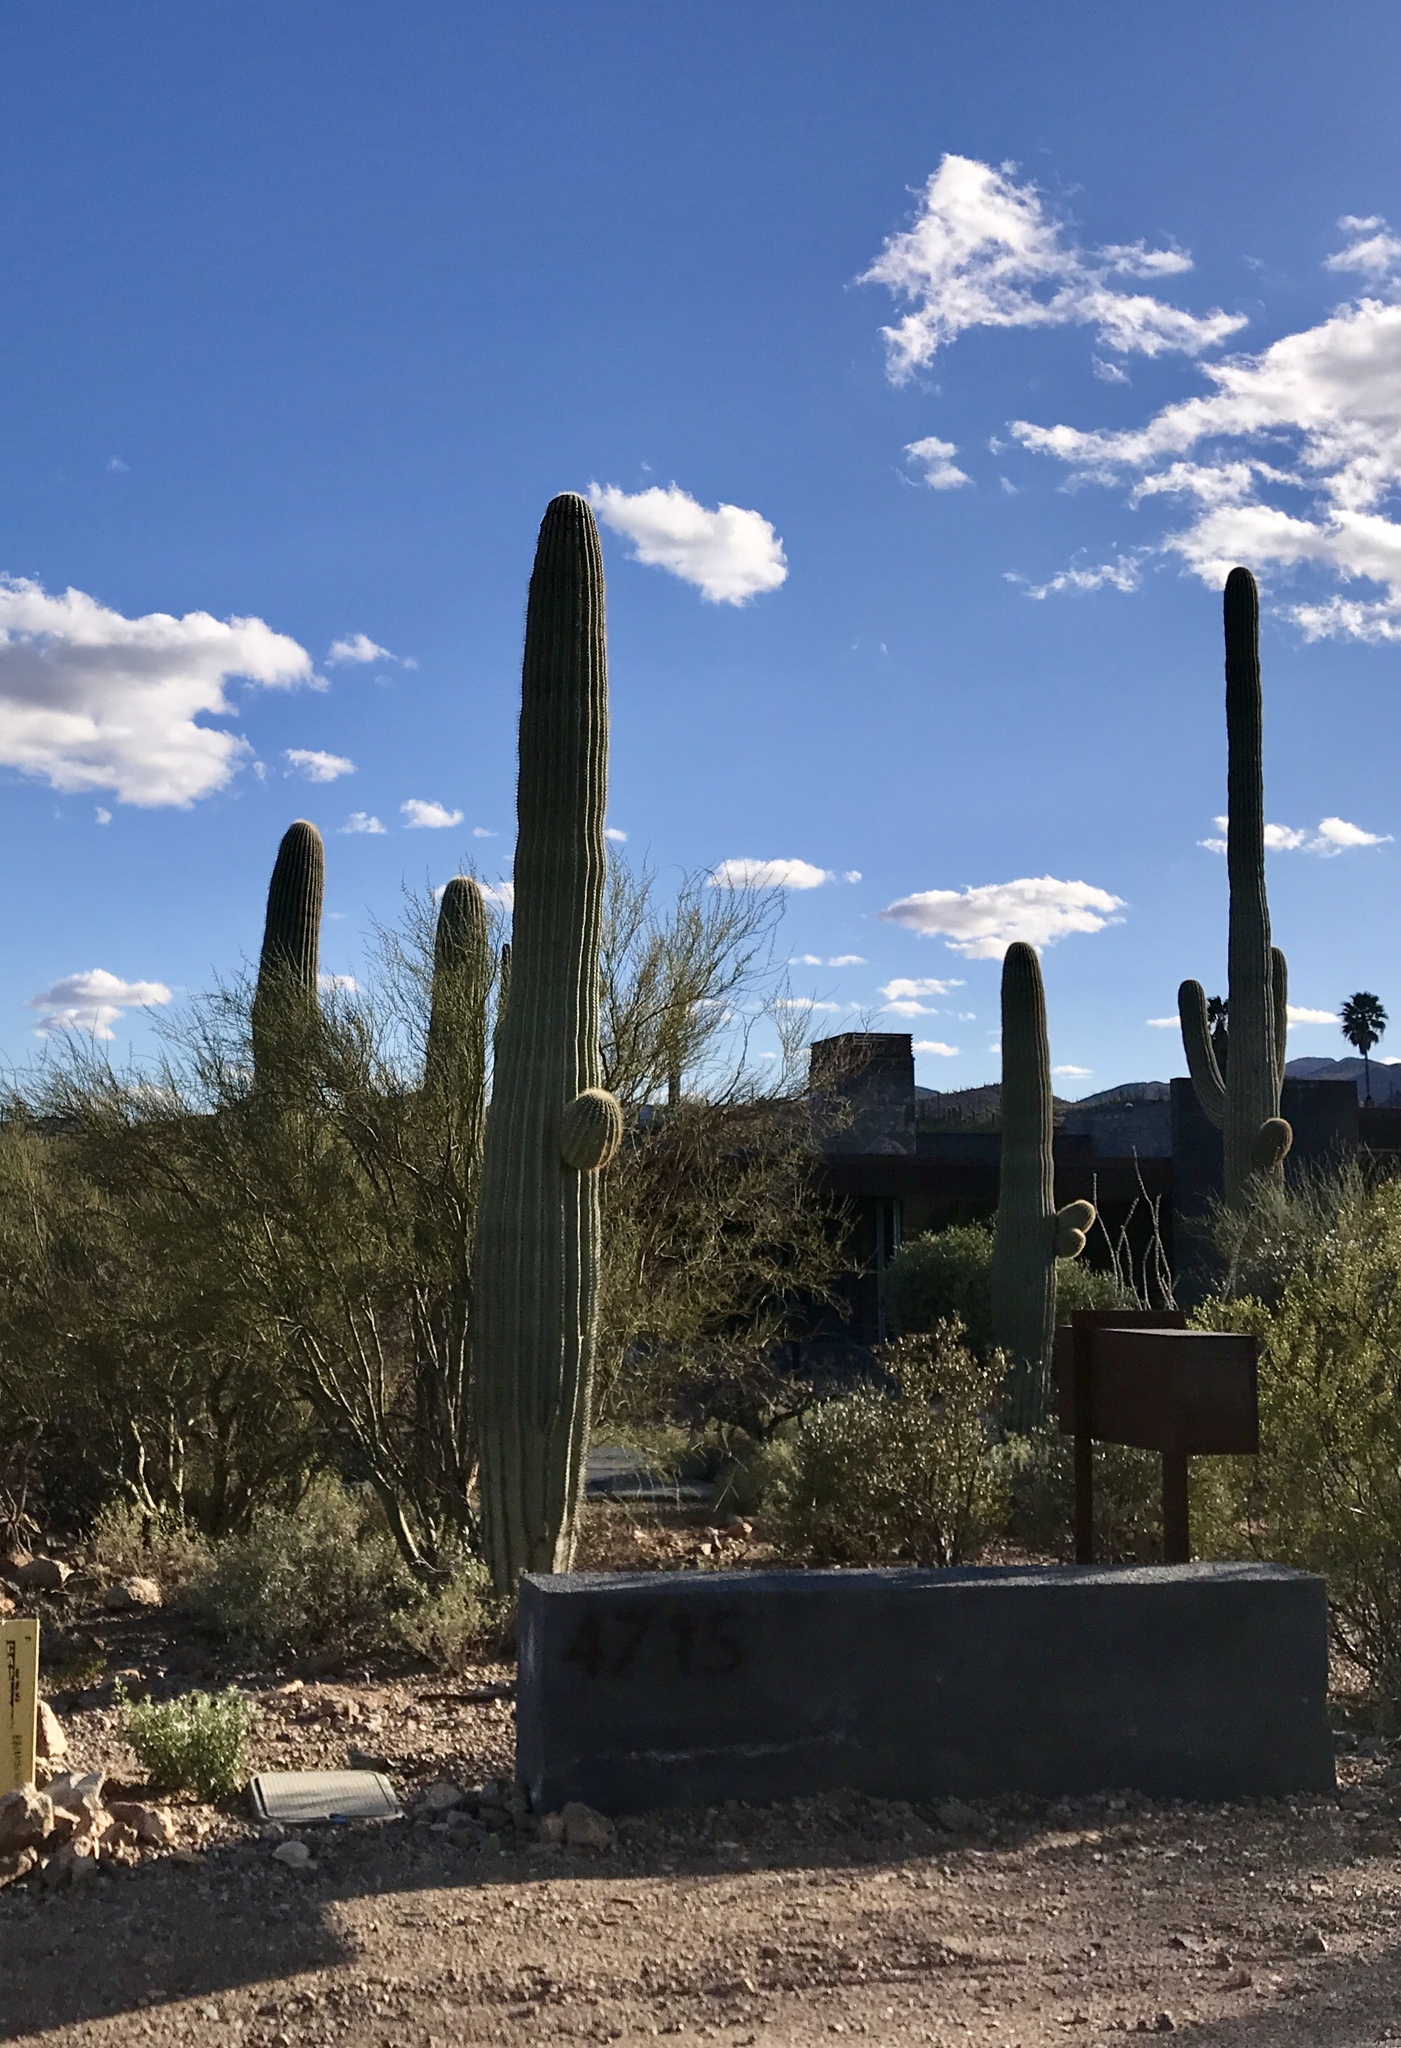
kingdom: Plantae
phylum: Tracheophyta
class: Magnoliopsida
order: Caryophyllales
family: Cactaceae
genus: Carnegiea
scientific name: Carnegiea gigantea
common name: Saguaro
